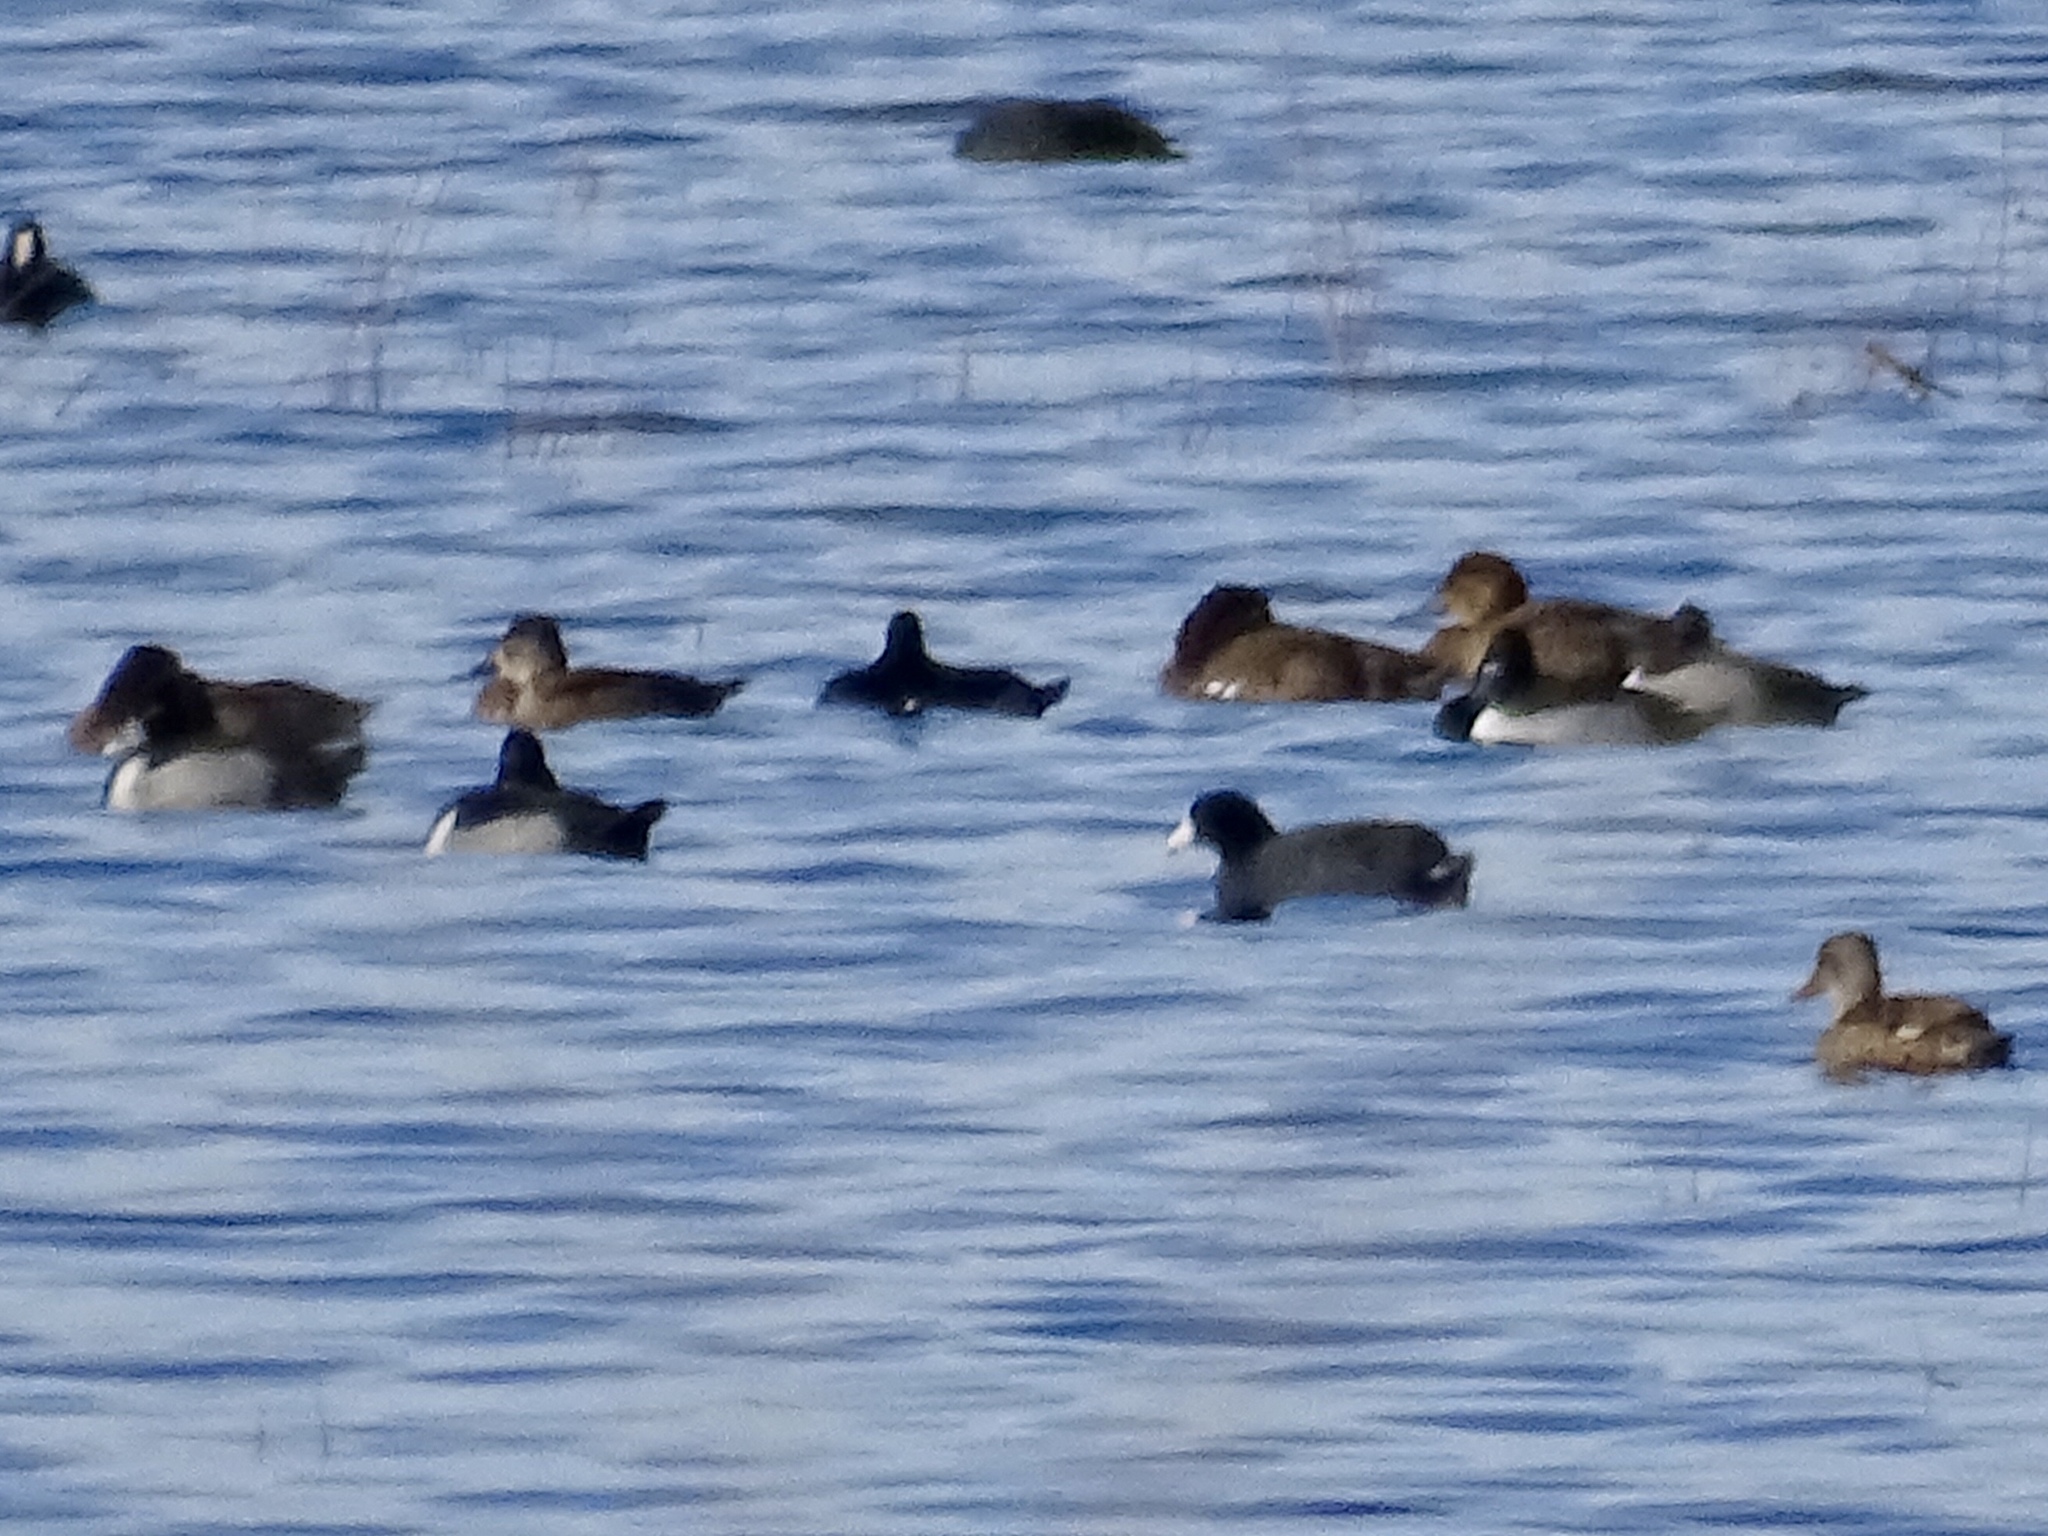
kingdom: Animalia
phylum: Chordata
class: Aves
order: Anseriformes
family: Anatidae
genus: Aythya
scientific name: Aythya collaris
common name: Ring-necked duck
